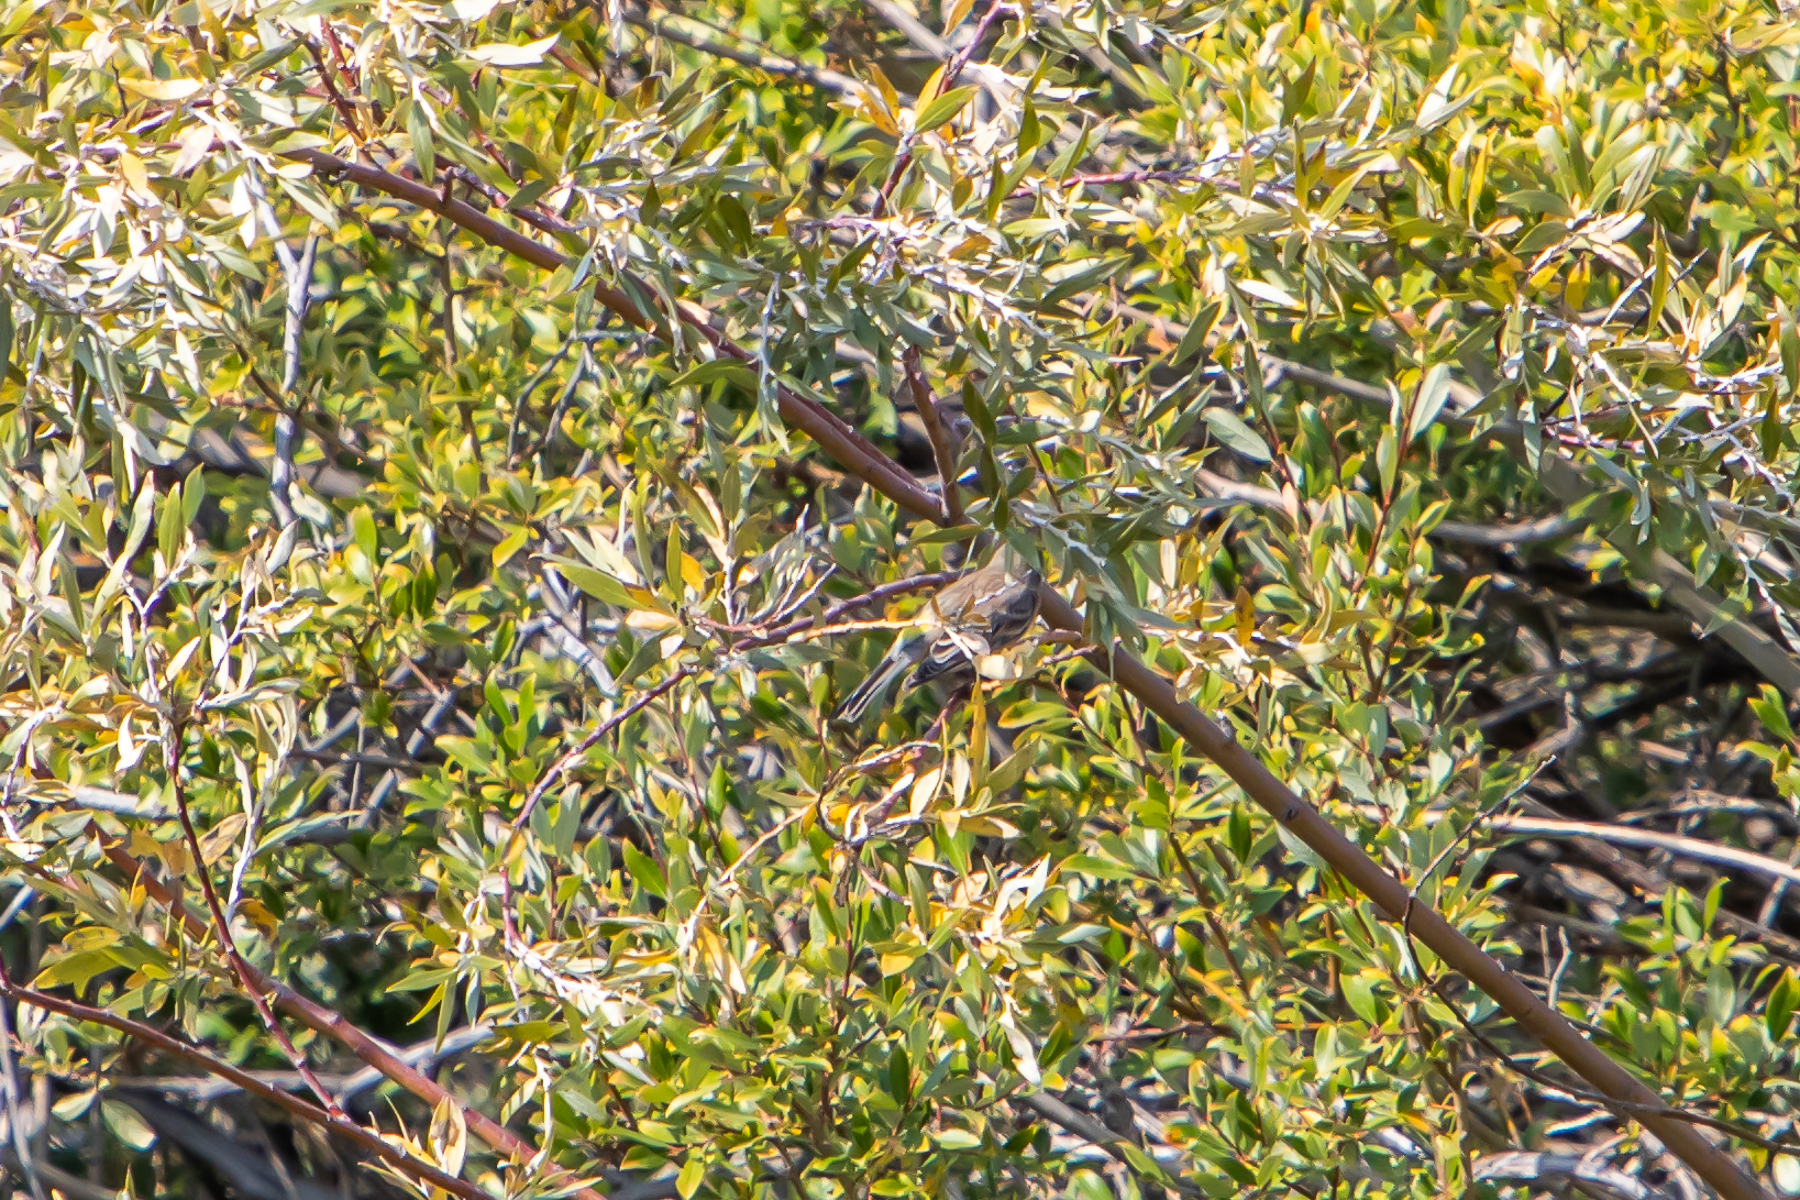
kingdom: Animalia
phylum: Chordata
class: Aves
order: Passeriformes
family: Parulidae
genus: Setophaga
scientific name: Setophaga auduboni
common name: Audubon's warbler
